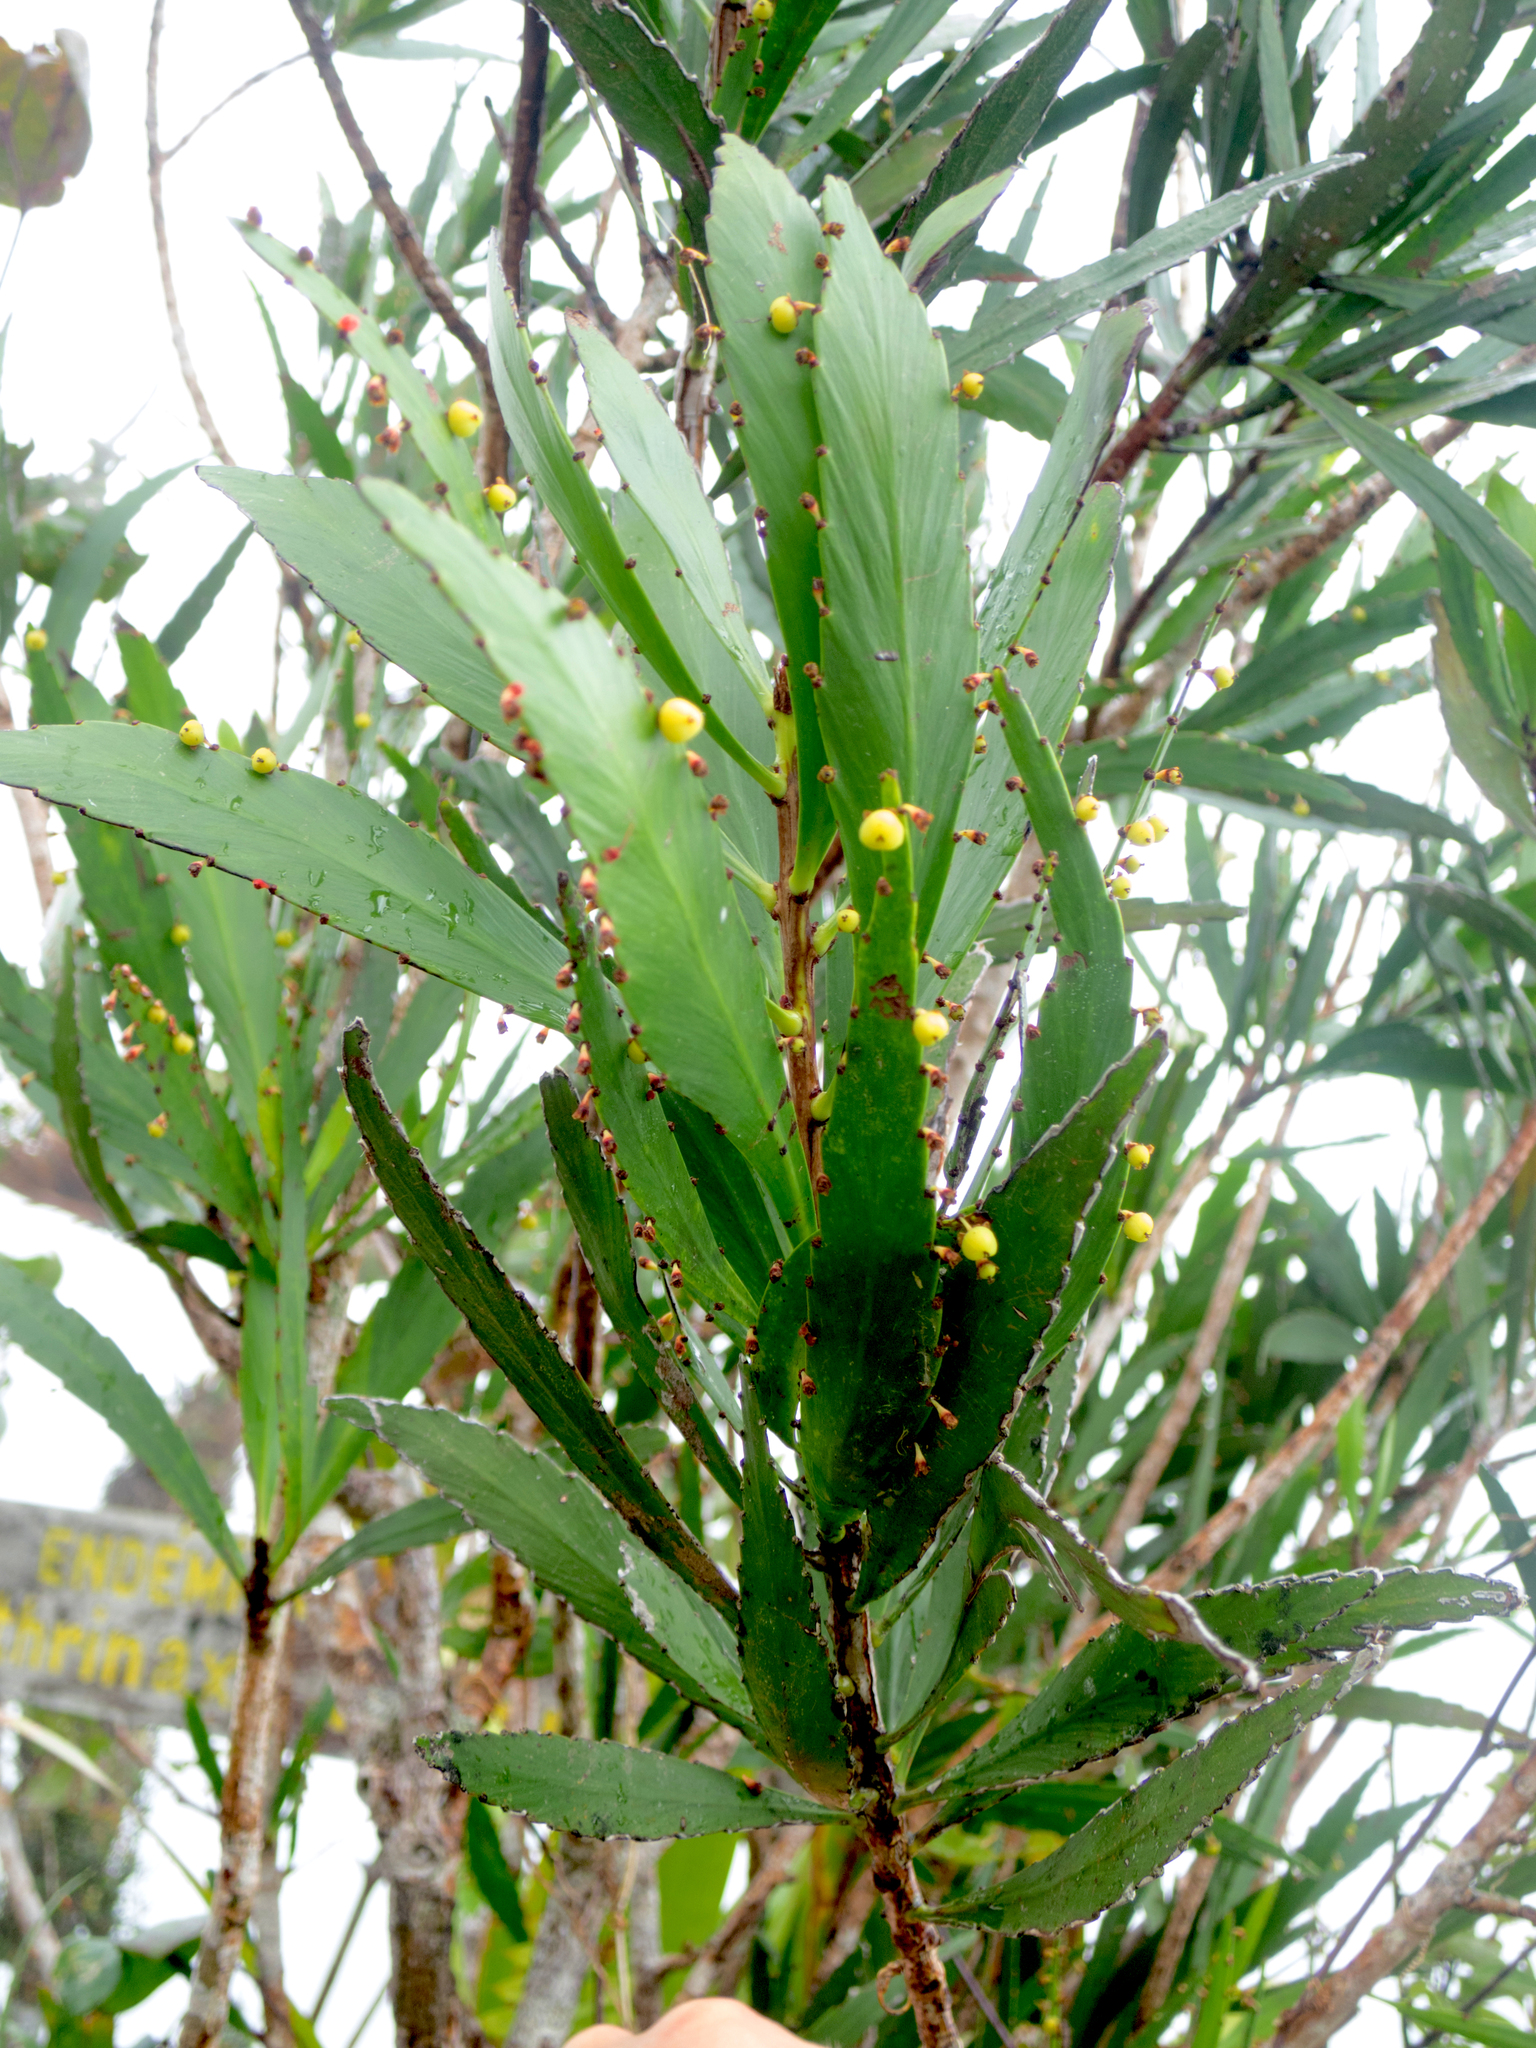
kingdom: Plantae
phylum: Tracheophyta
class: Magnoliopsida
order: Malpighiales
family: Phyllanthaceae
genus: Phyllanthus
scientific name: Phyllanthus epiphyllanthus
